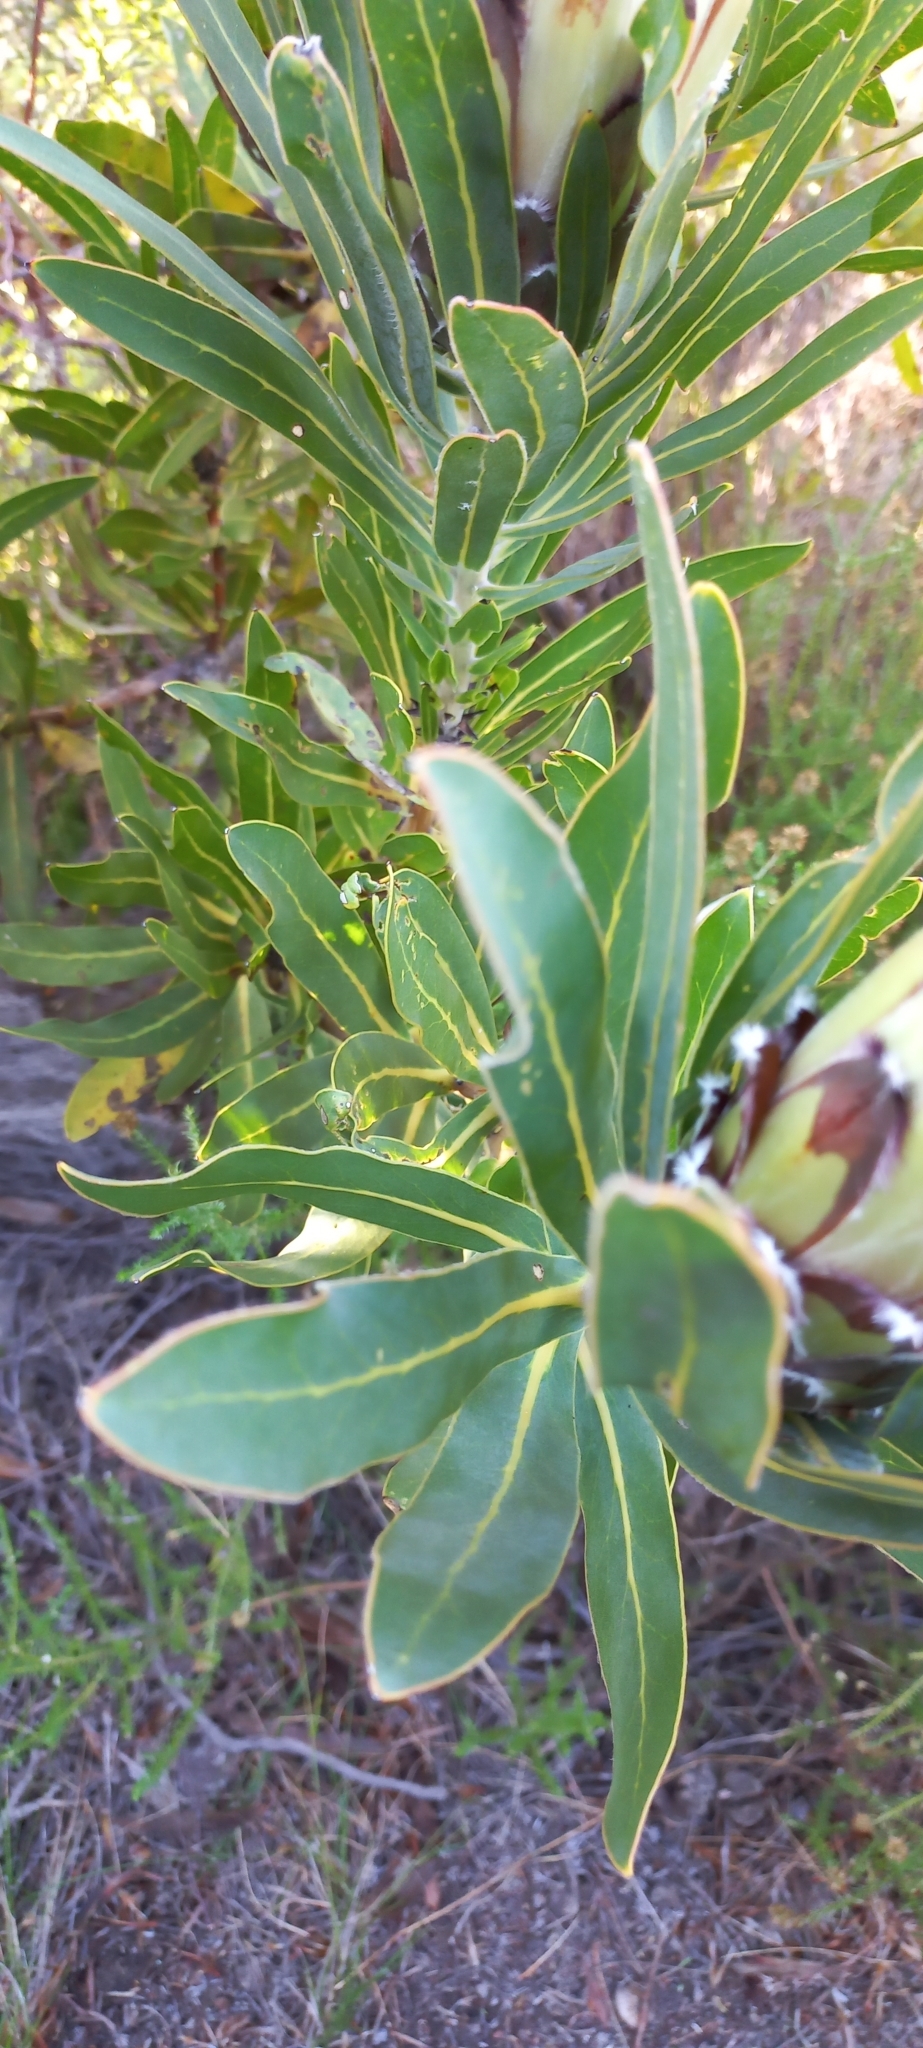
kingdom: Plantae
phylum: Tracheophyta
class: Magnoliopsida
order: Proteales
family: Proteaceae
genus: Protea
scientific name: Protea
